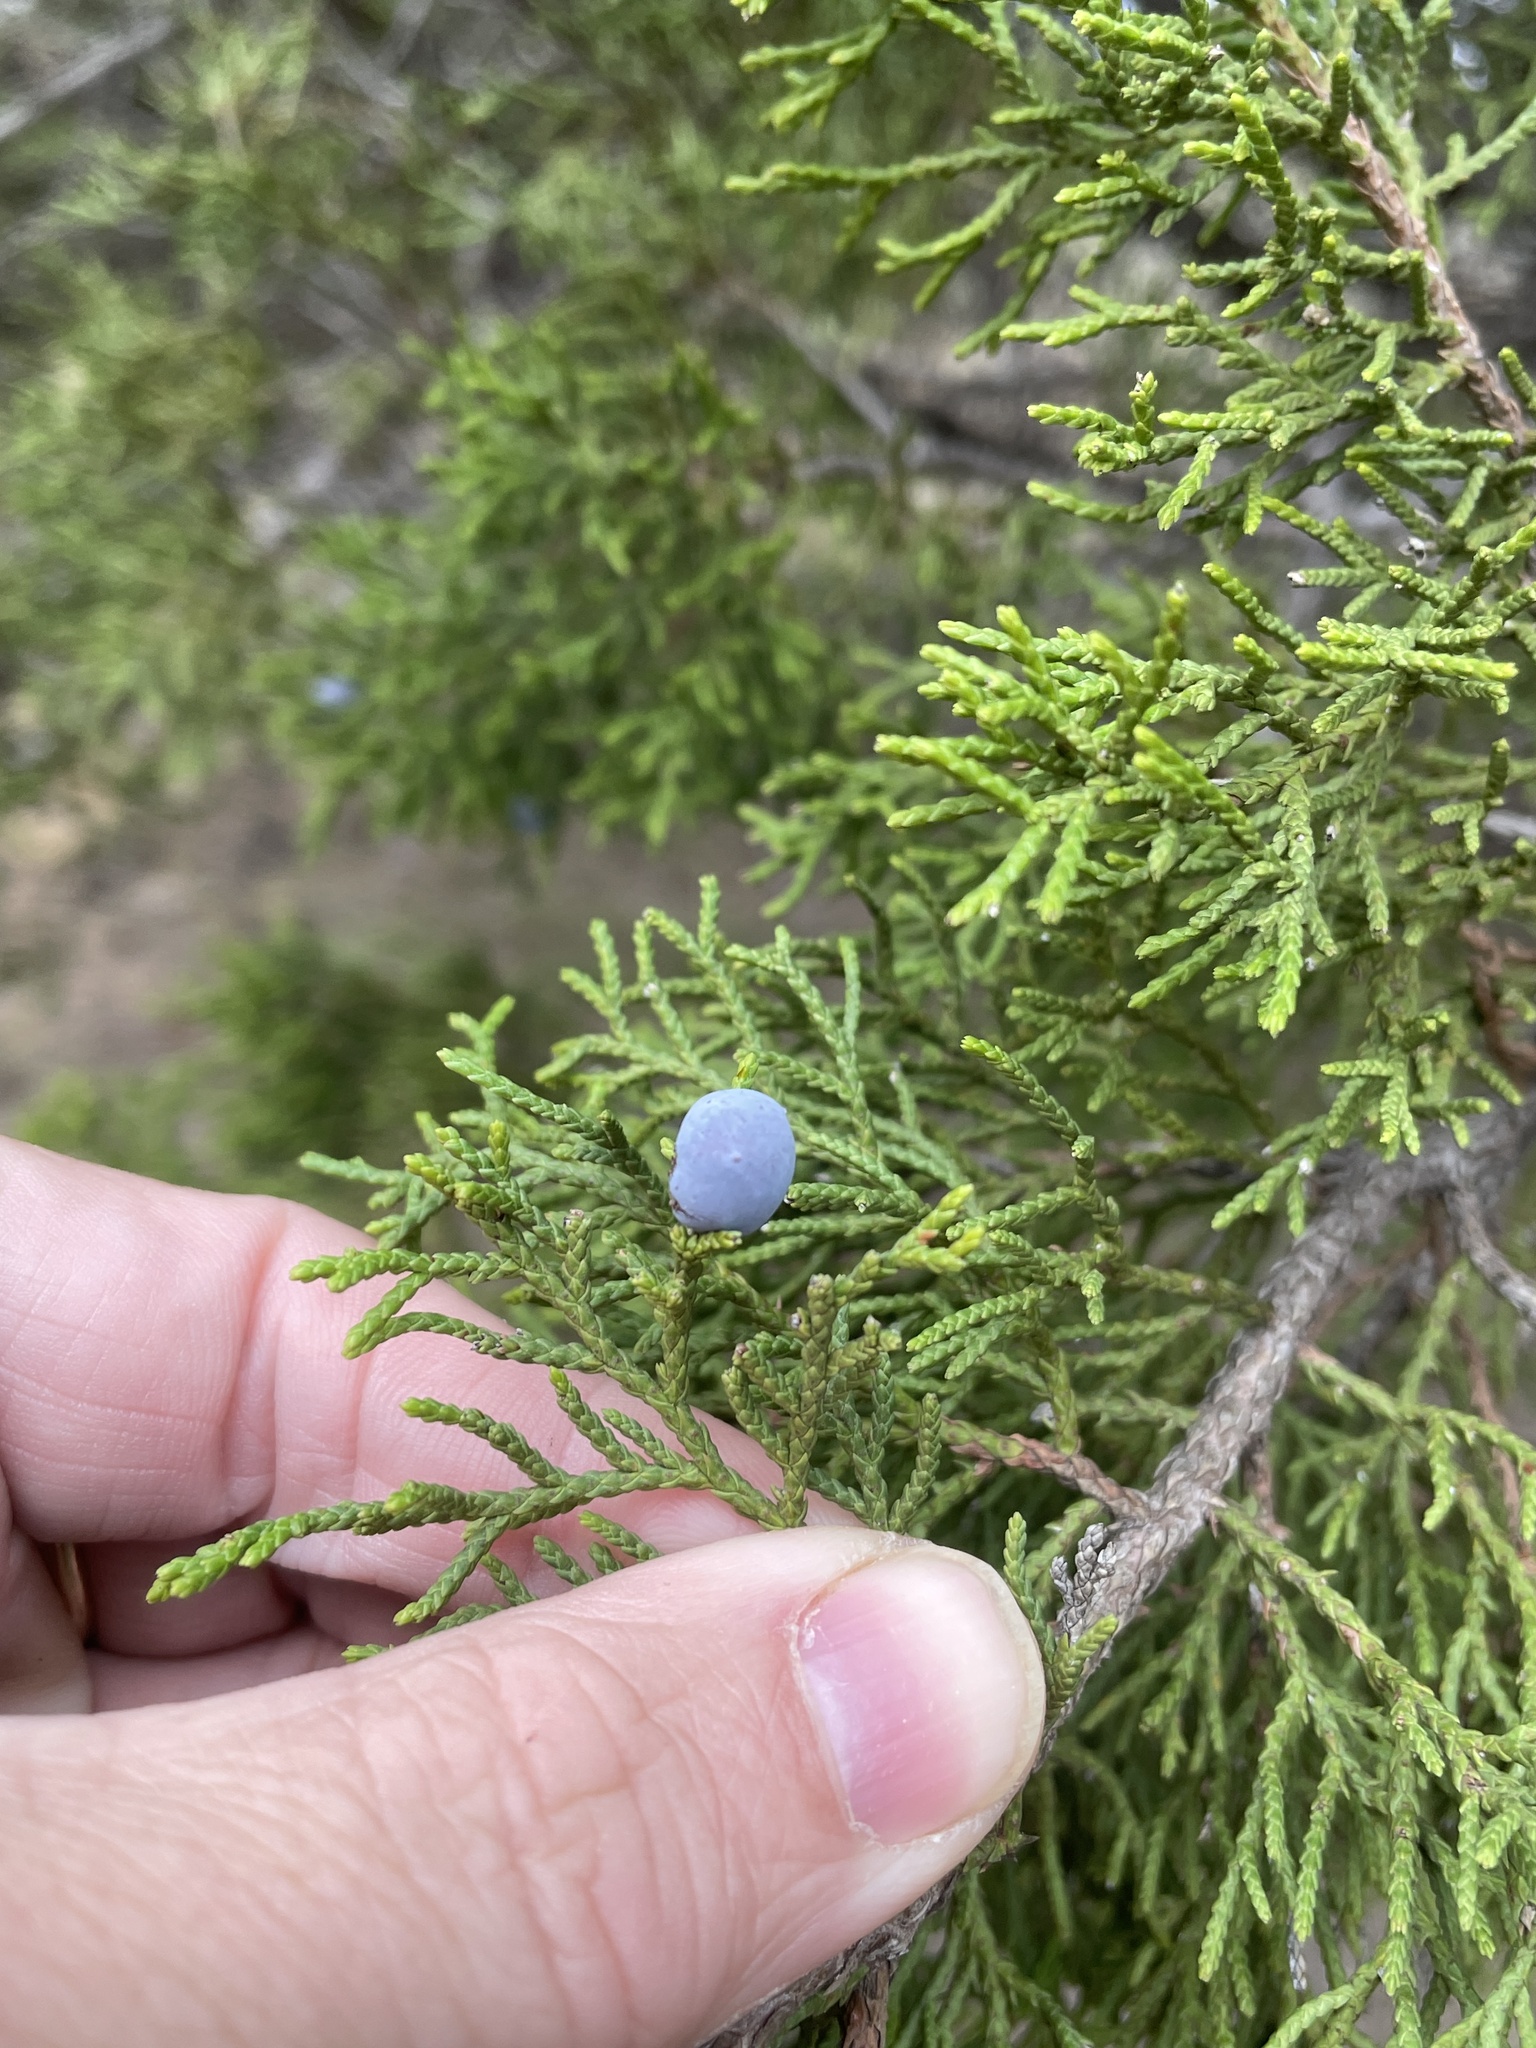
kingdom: Plantae
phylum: Tracheophyta
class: Pinopsida
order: Pinales
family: Cupressaceae
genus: Juniperus
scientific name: Juniperus ashei
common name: Mexican juniper
